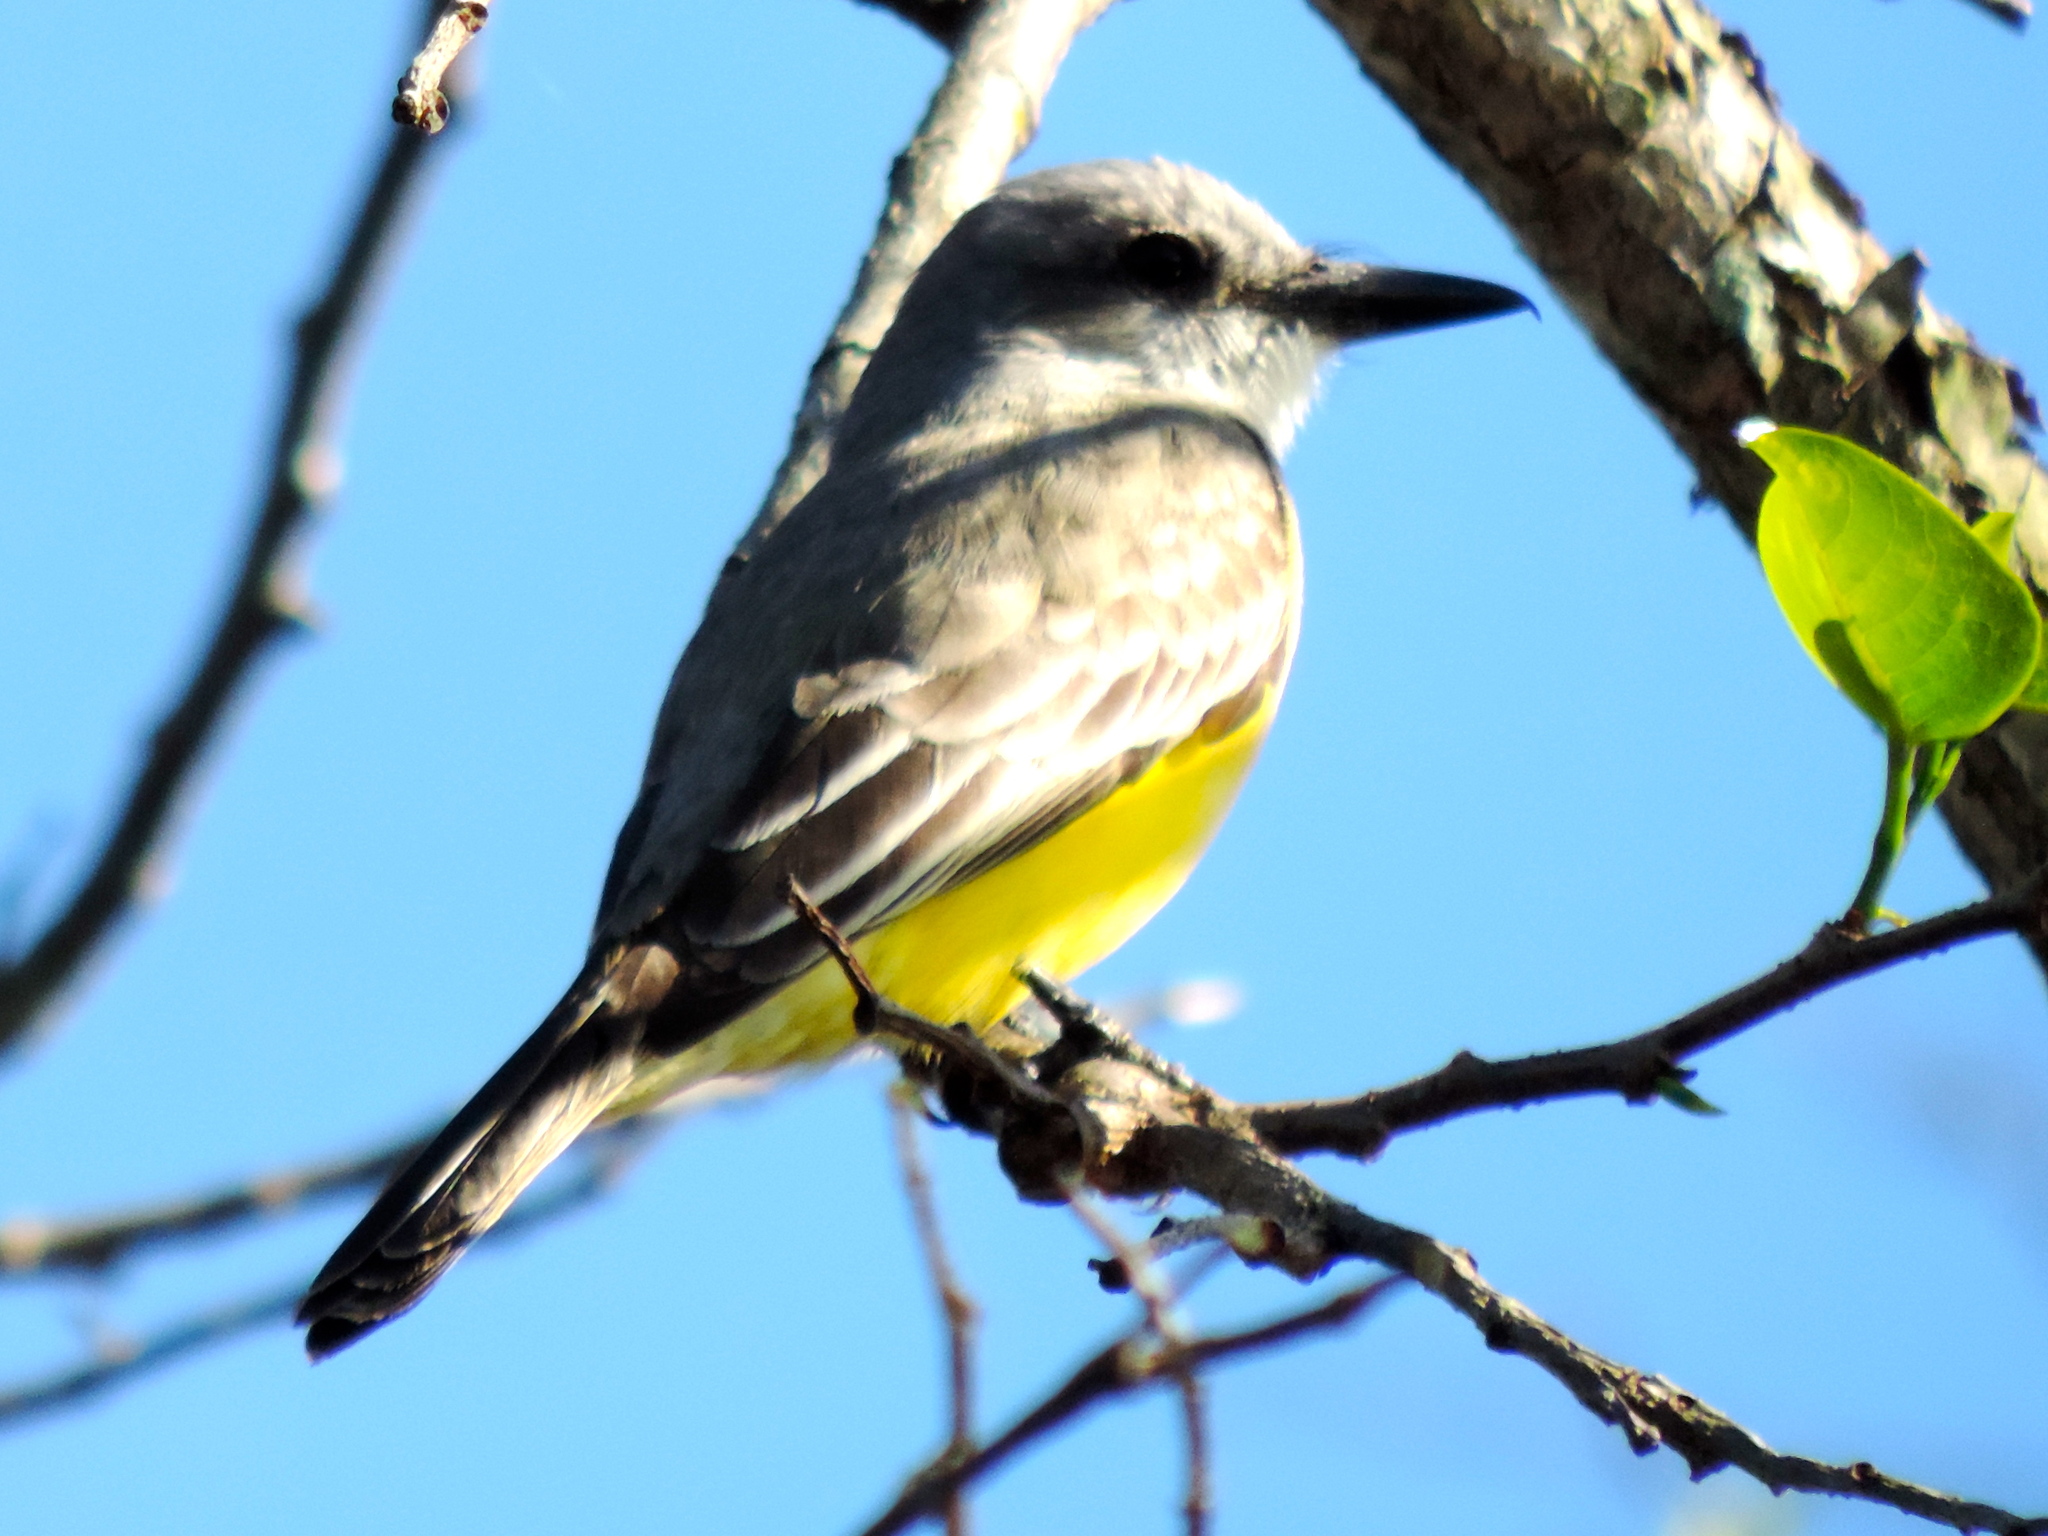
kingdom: Animalia
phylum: Chordata
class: Aves
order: Passeriformes
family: Tyrannidae
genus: Tyrannus
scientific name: Tyrannus melancholicus
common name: Tropical kingbird
